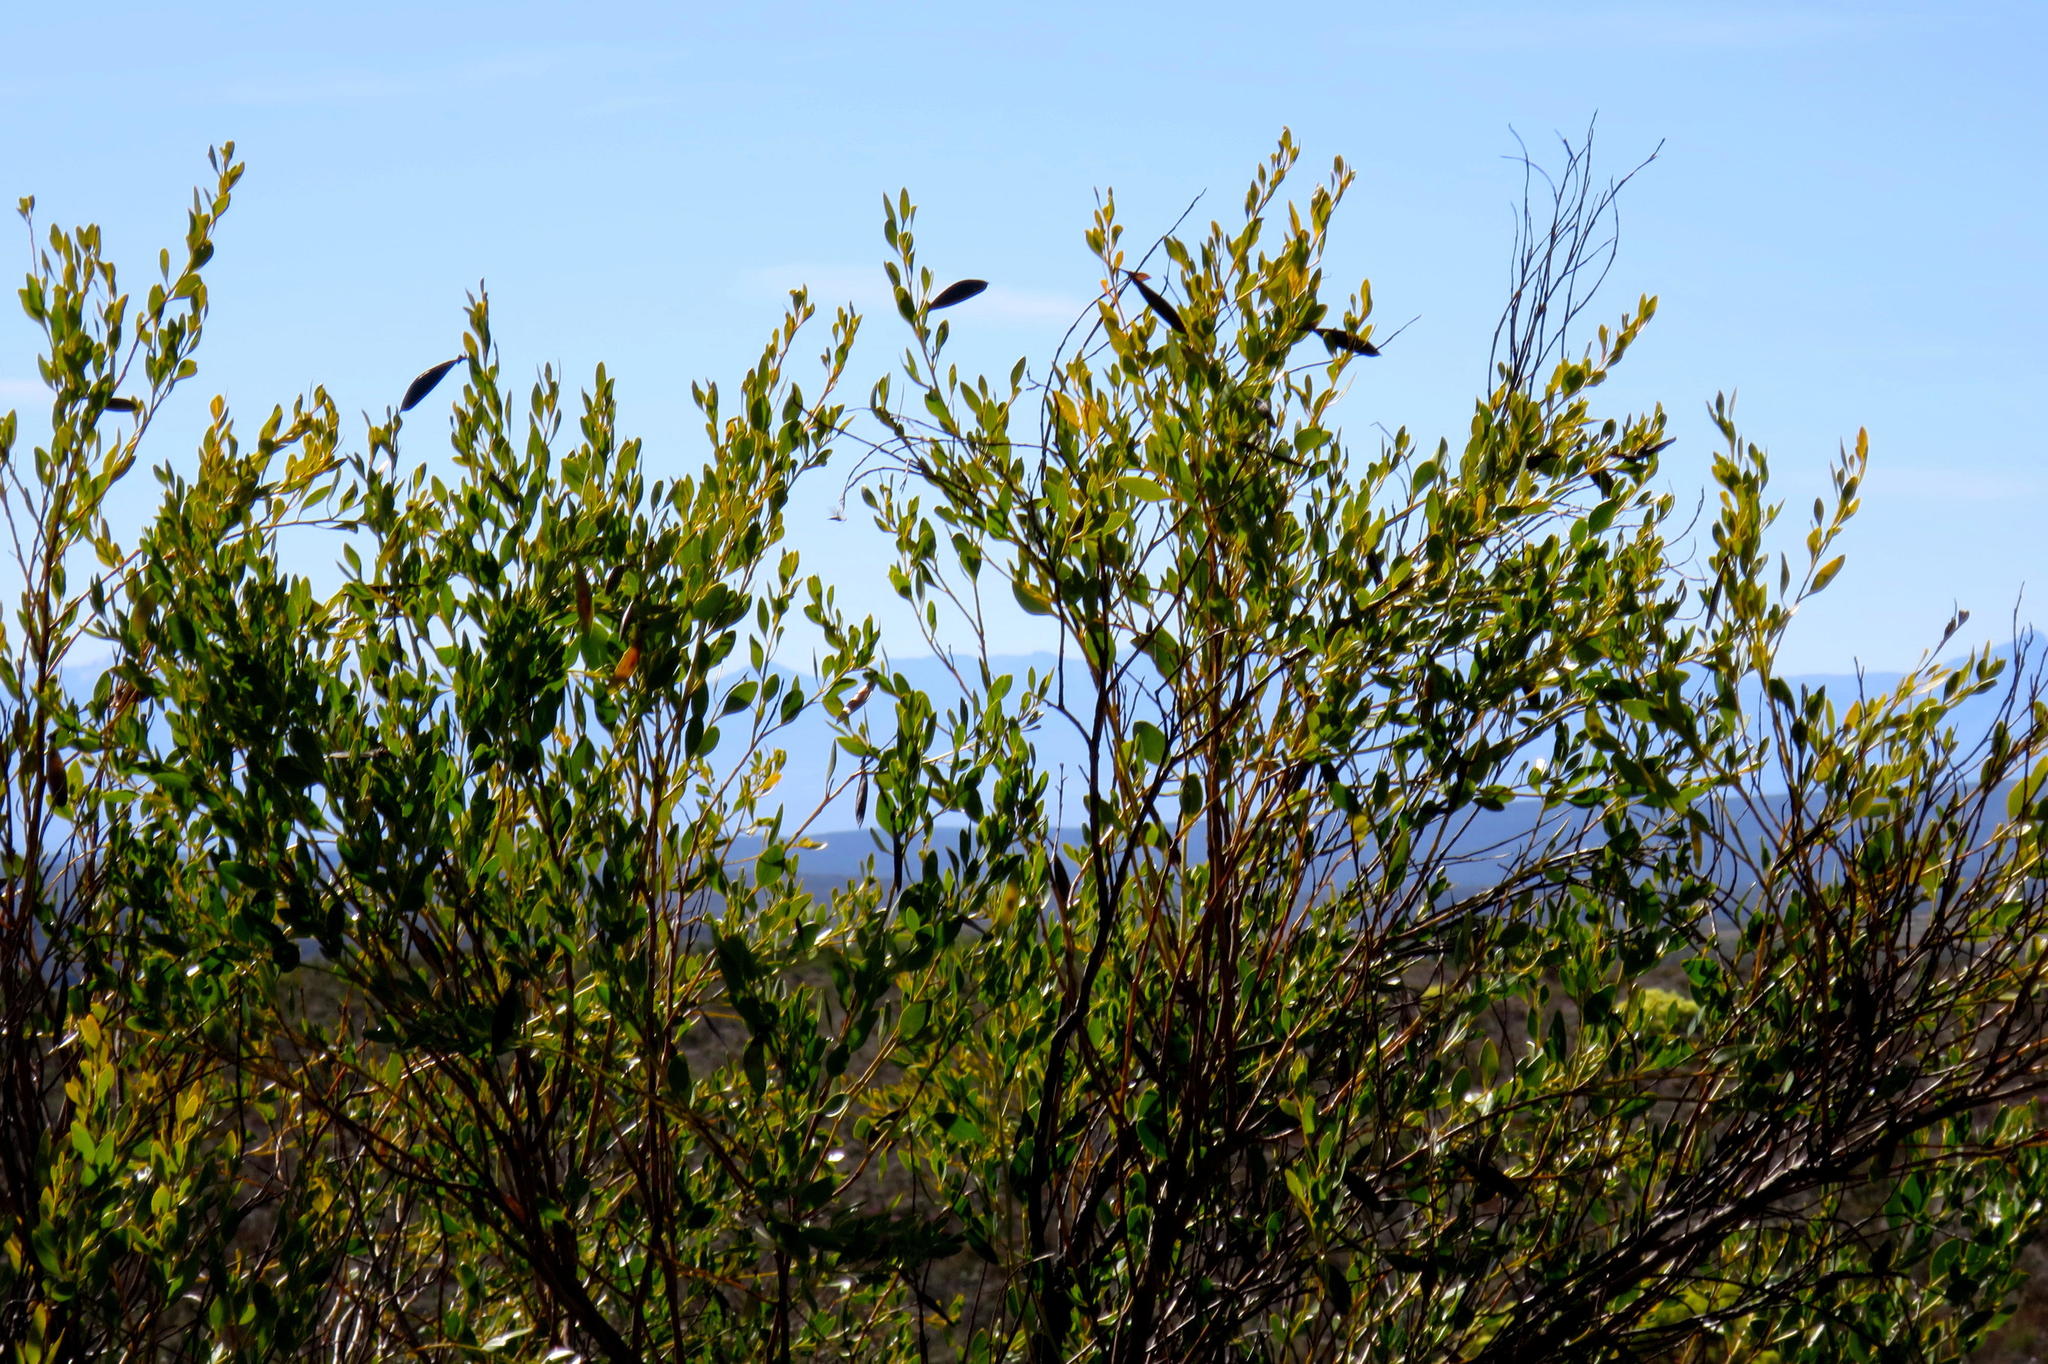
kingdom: Plantae
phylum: Tracheophyta
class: Magnoliopsida
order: Fabales
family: Fabaceae
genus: Rafnia
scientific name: Rafnia vlokii
